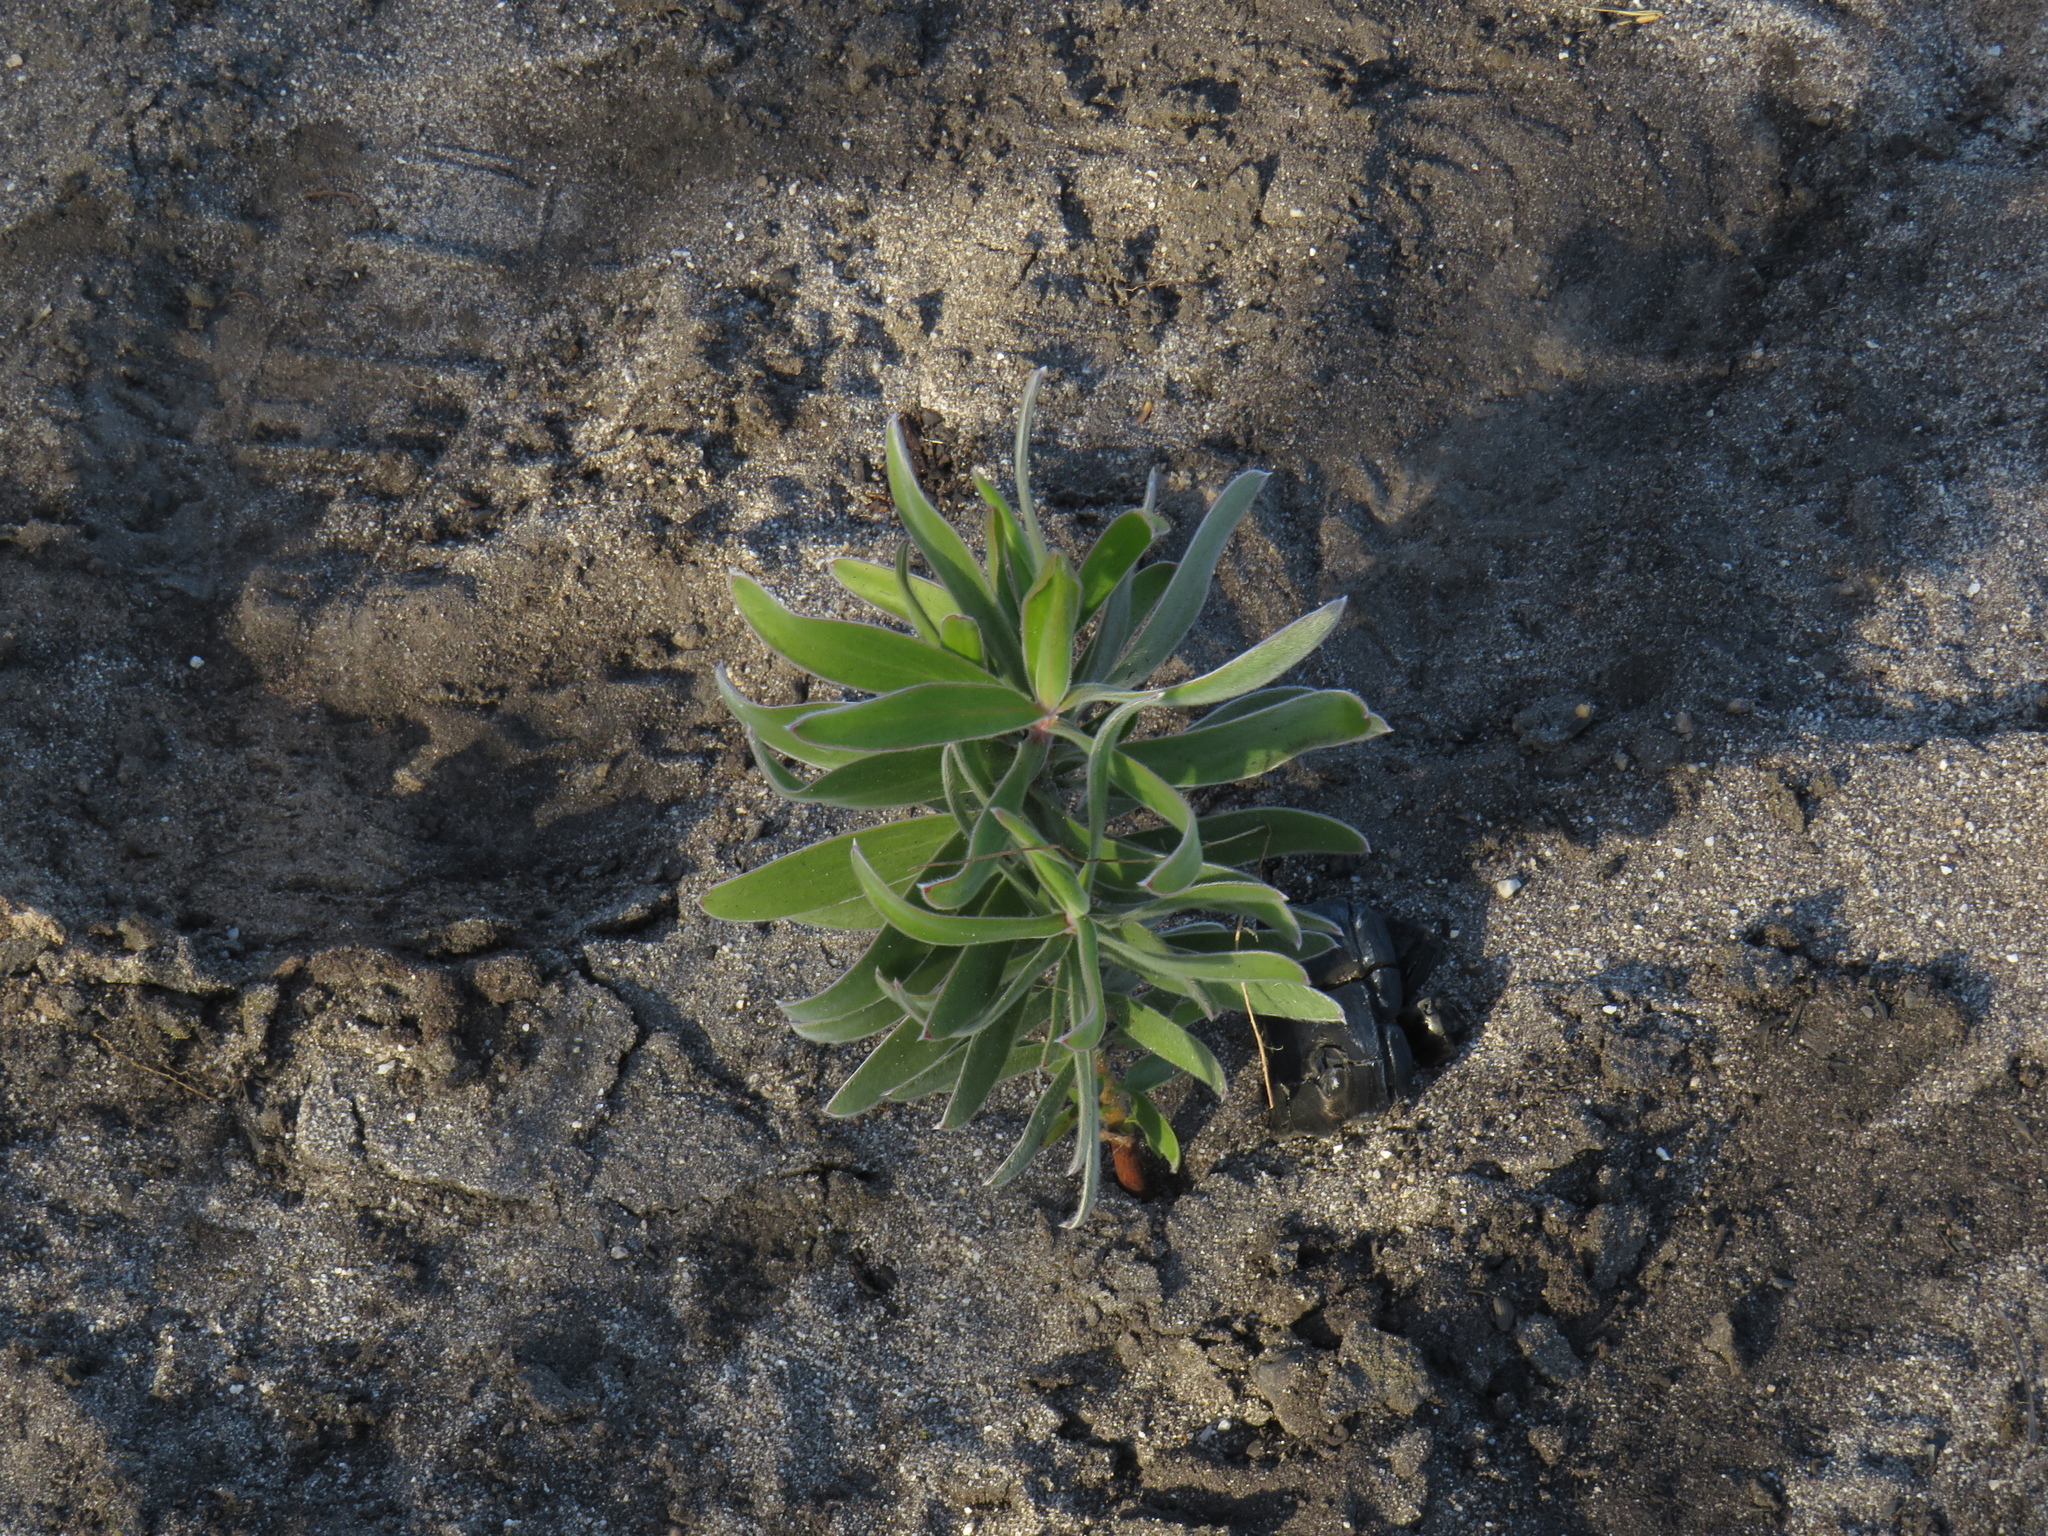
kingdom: Plantae
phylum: Tracheophyta
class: Magnoliopsida
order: Proteales
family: Proteaceae
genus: Leucadendron
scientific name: Leucadendron laureolum
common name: Golden sunshinebush
